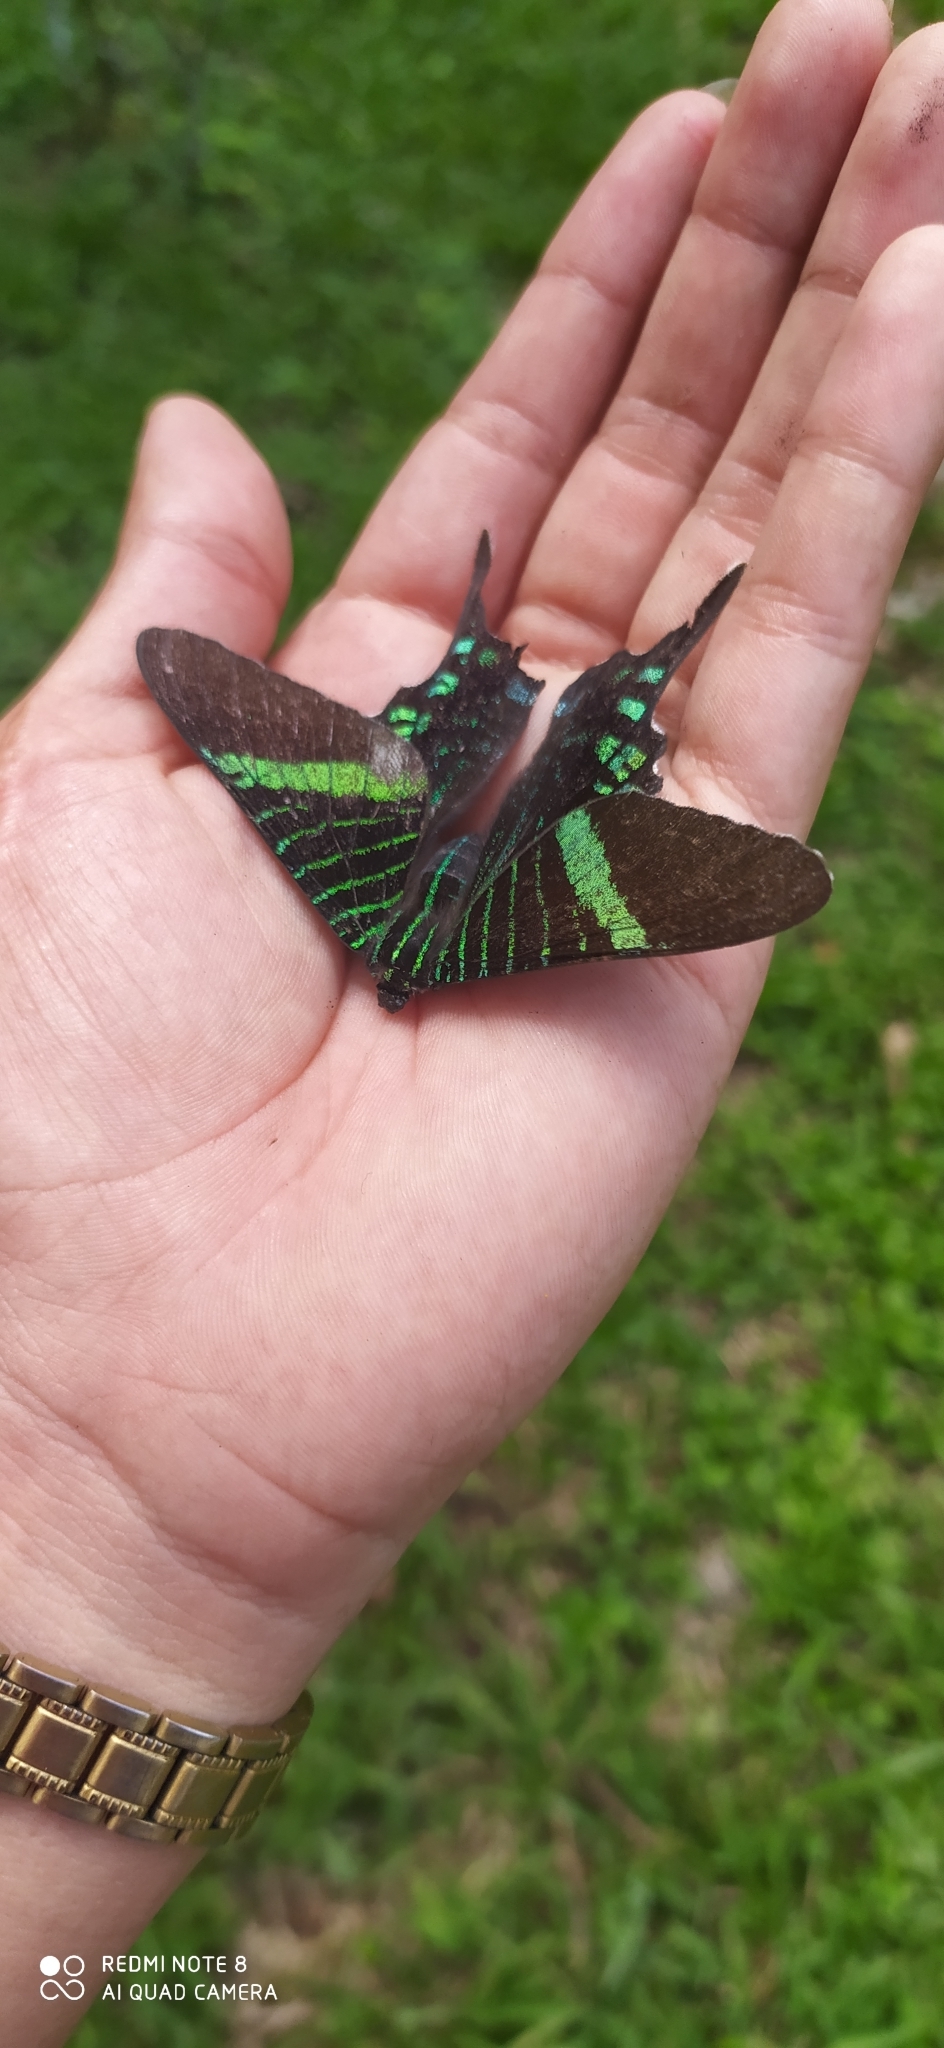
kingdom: Animalia
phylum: Arthropoda
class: Insecta
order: Lepidoptera
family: Uraniidae
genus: Urania
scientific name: Urania fulgens
